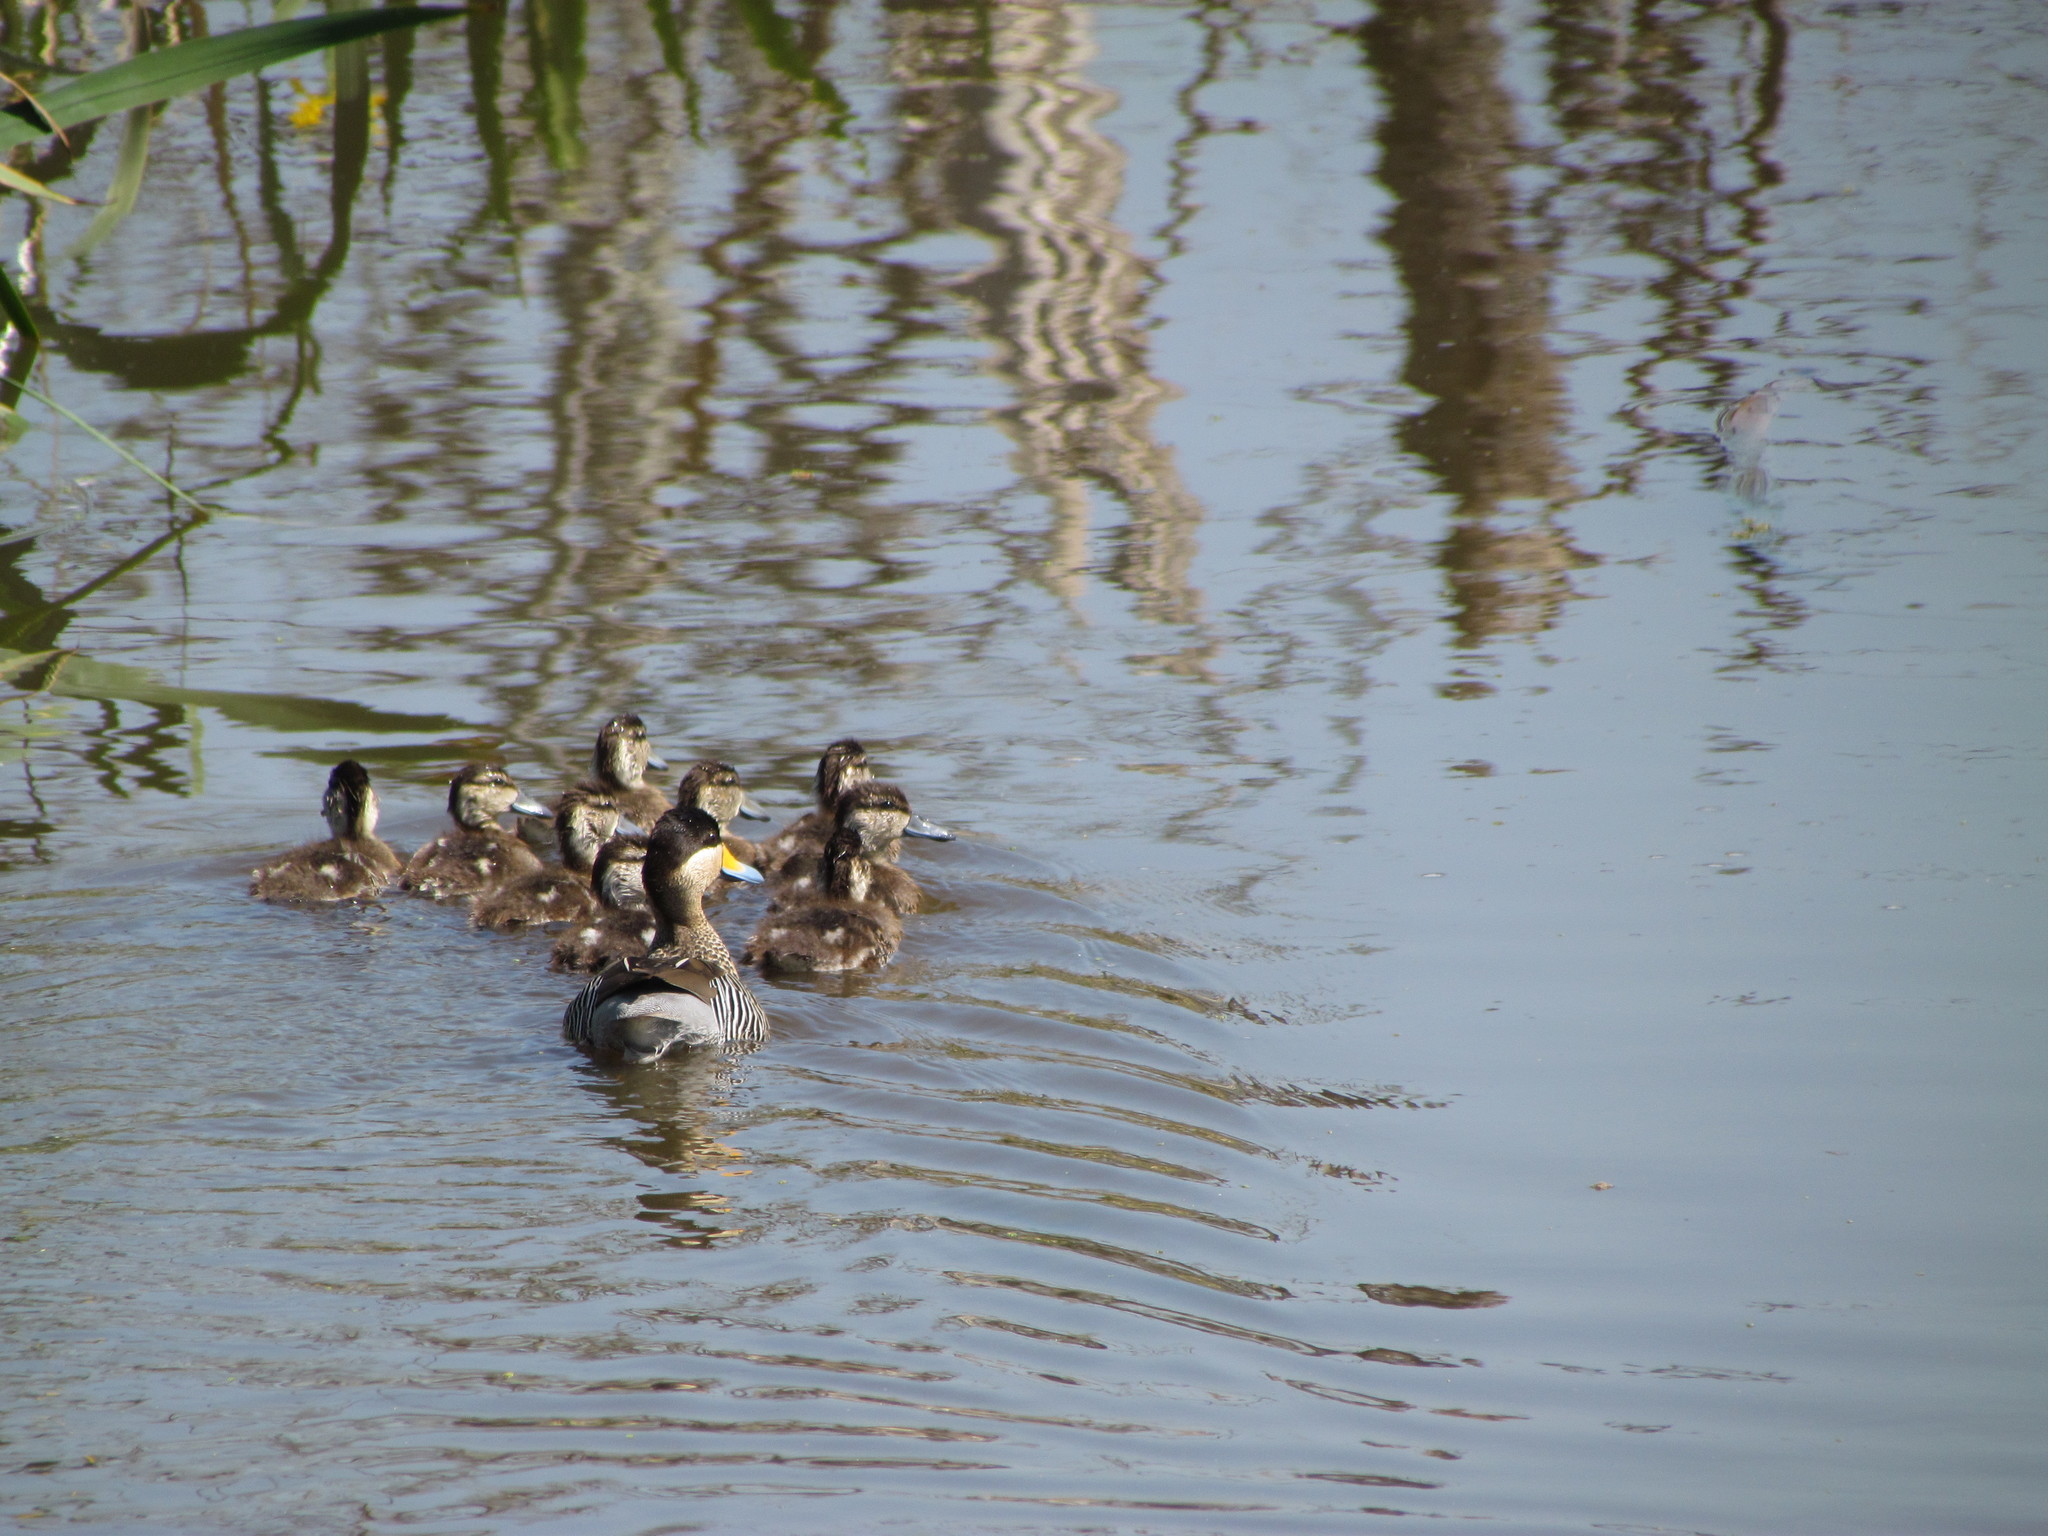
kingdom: Animalia
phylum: Chordata
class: Aves
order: Anseriformes
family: Anatidae
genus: Spatula
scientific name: Spatula versicolor
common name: Silver teal
